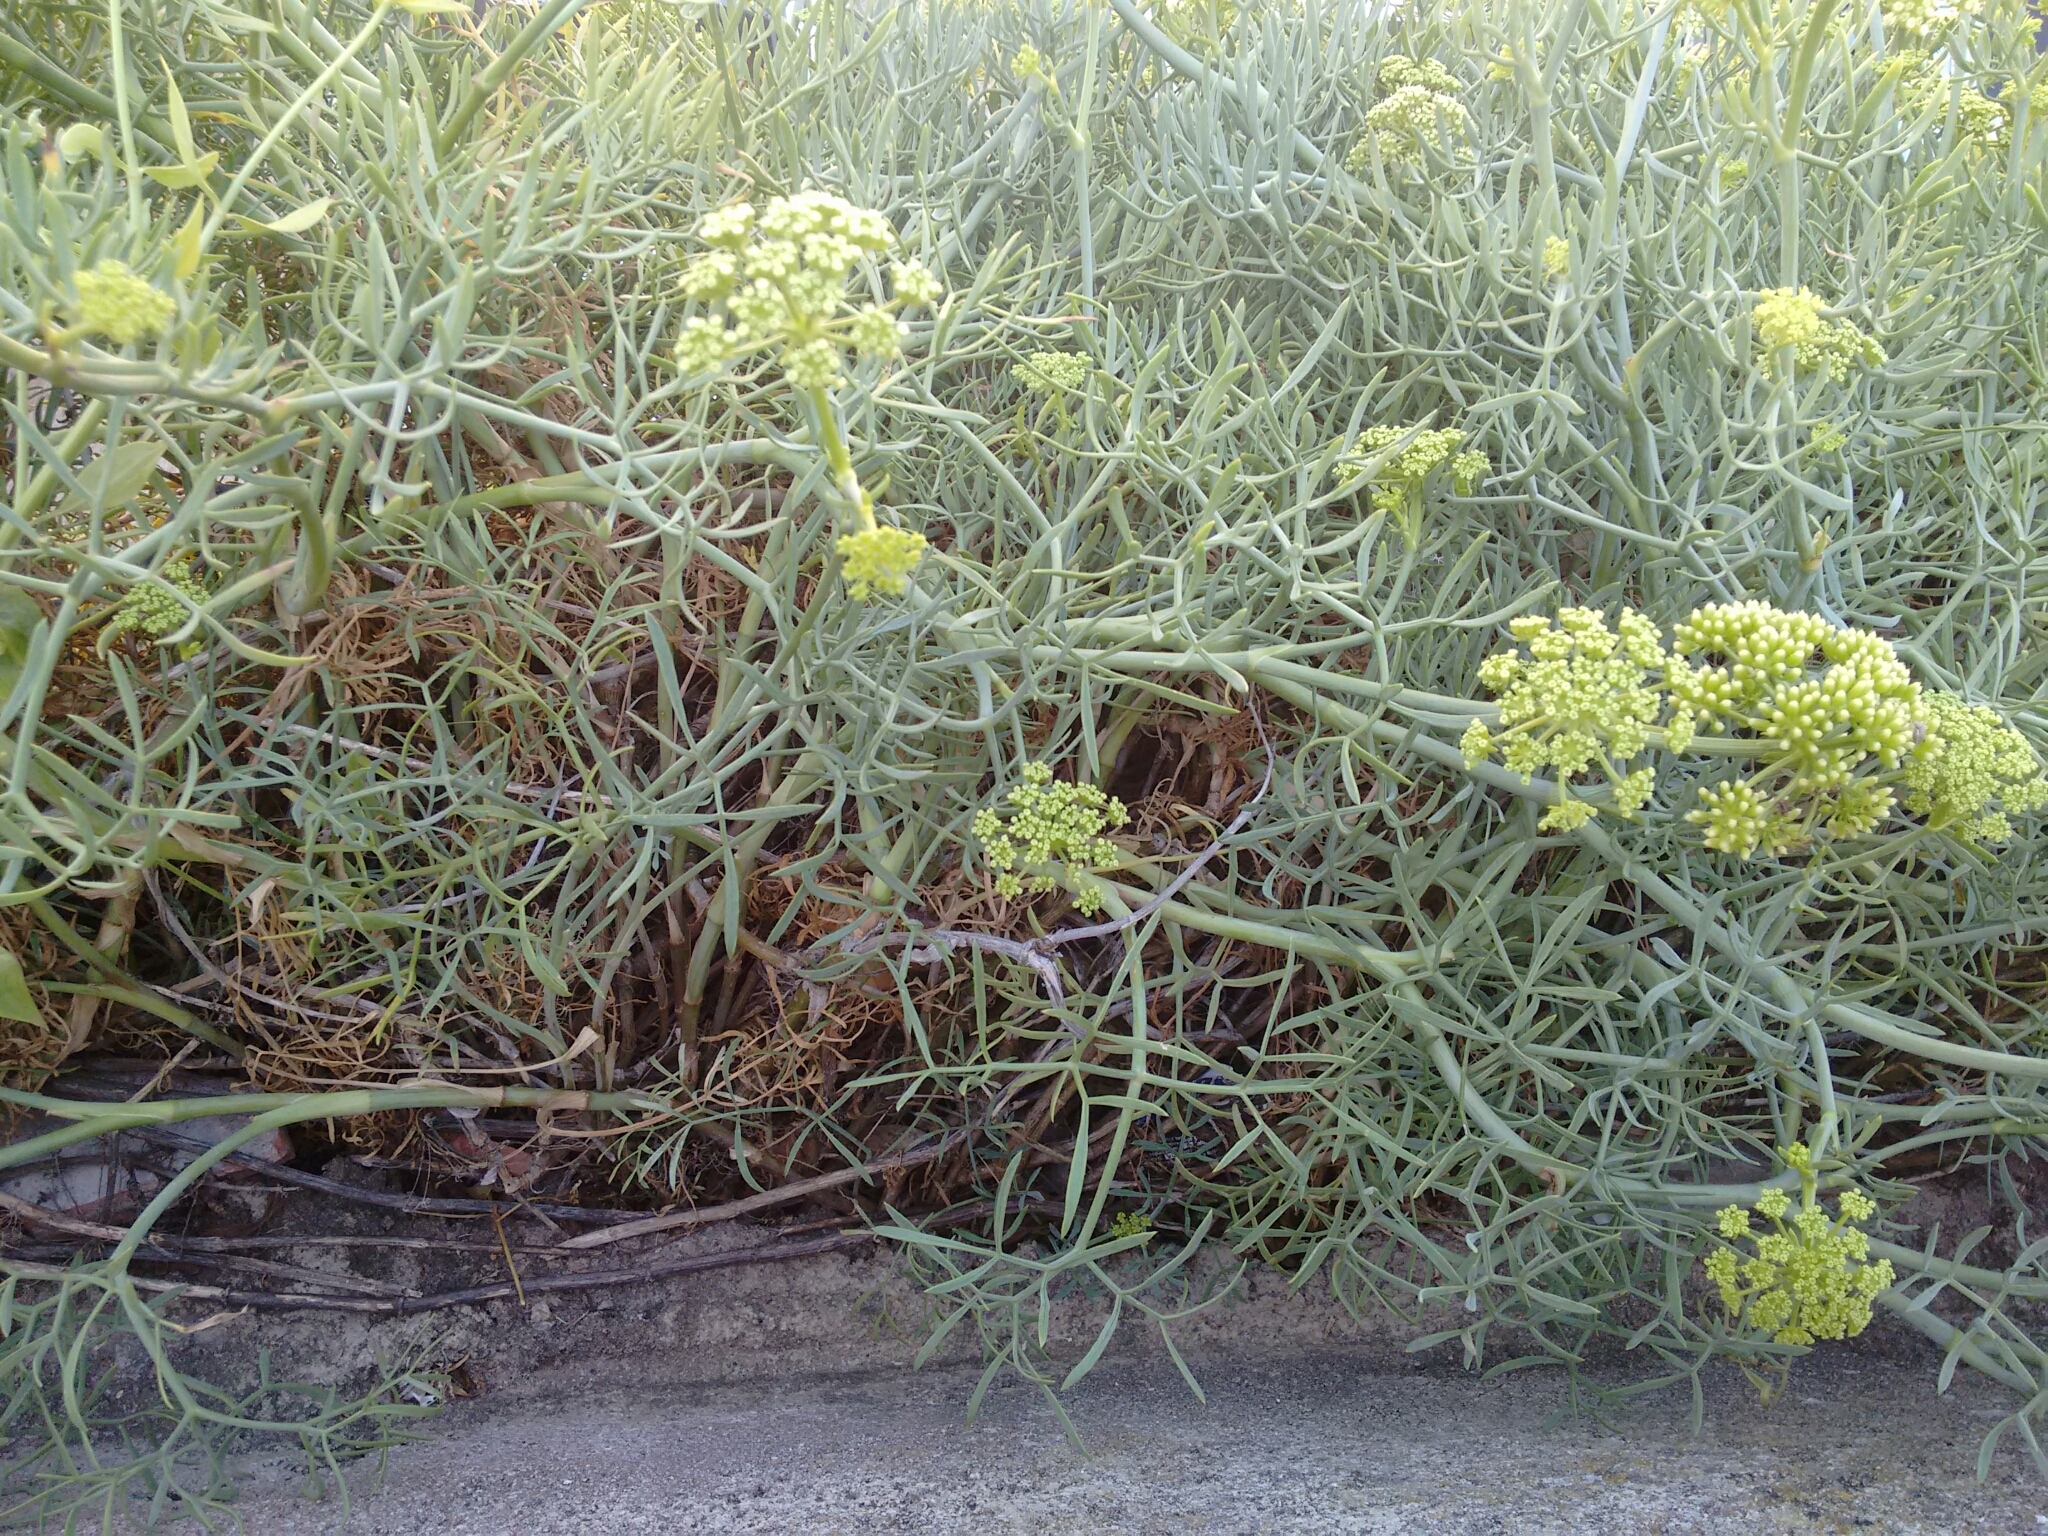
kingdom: Plantae
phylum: Tracheophyta
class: Magnoliopsida
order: Apiales
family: Apiaceae
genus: Crithmum
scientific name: Crithmum maritimum
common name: Rock samphire
